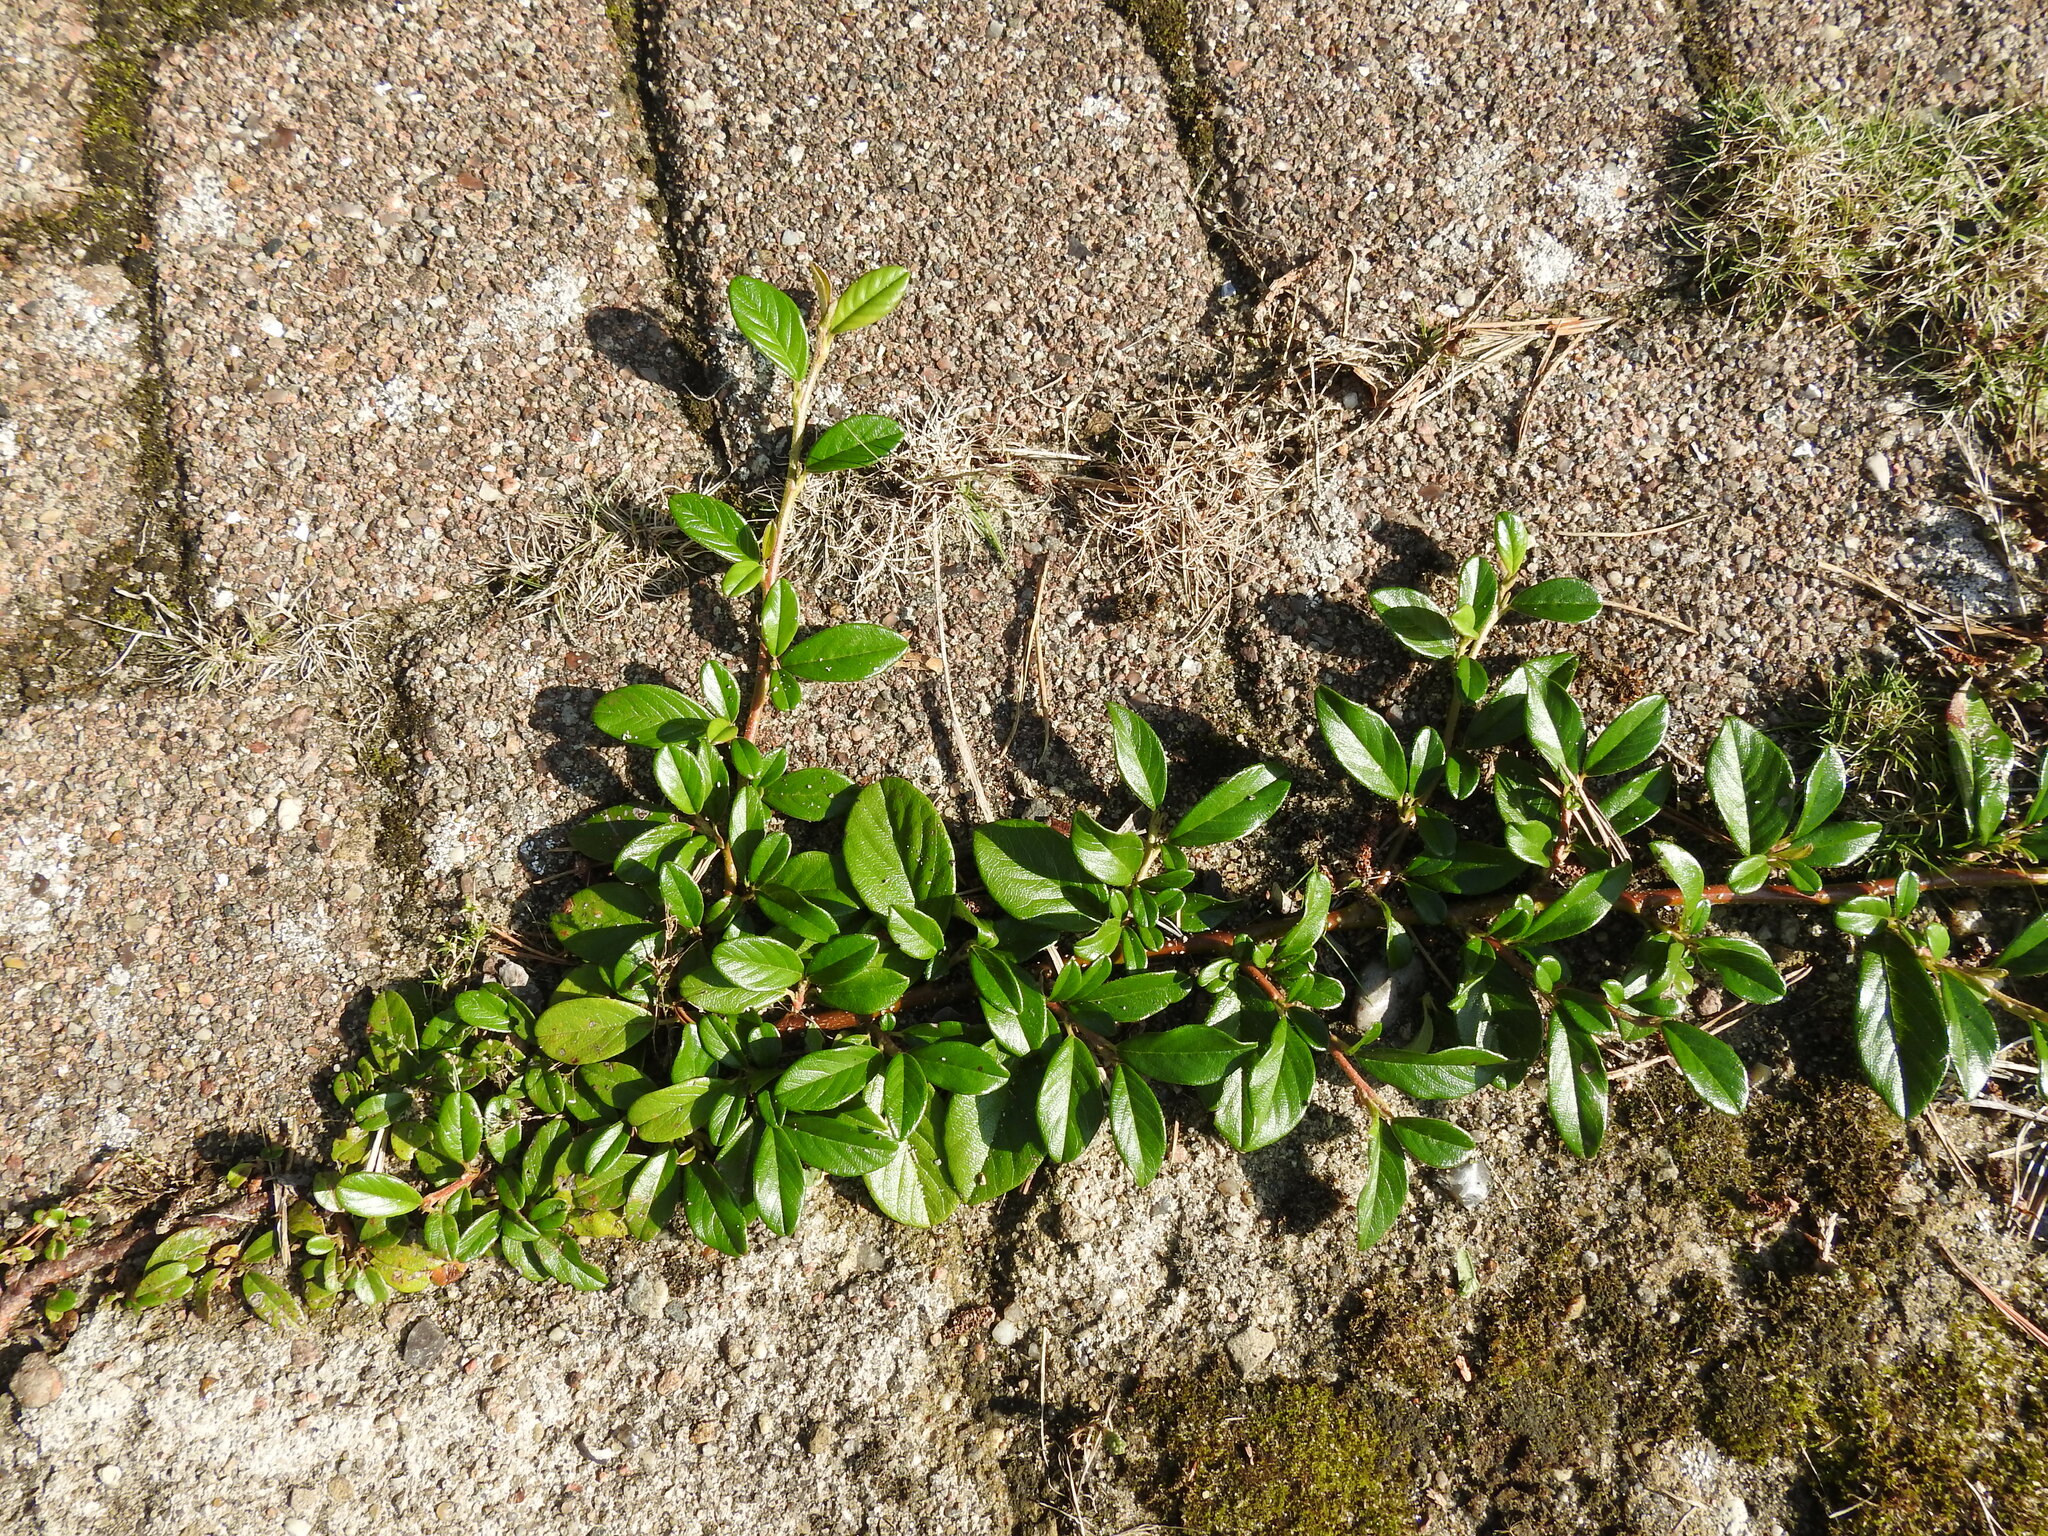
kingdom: Plantae
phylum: Tracheophyta
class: Magnoliopsida
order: Rosales
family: Rosaceae
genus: Cotoneaster
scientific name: Cotoneaster dammeri
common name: Bearberry cotoneaster
